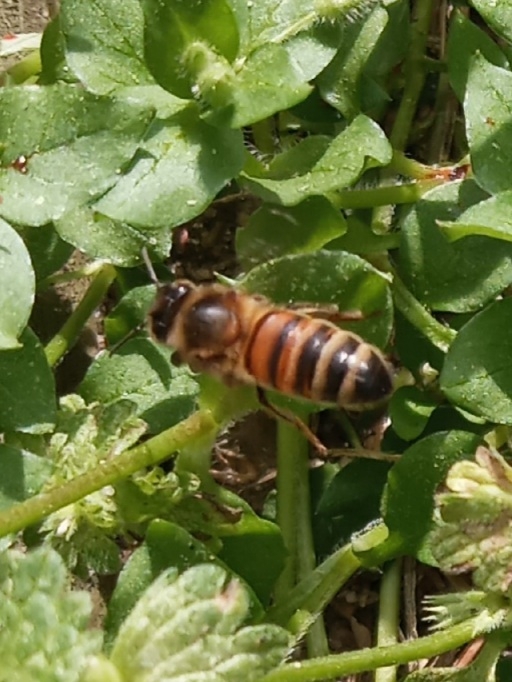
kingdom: Animalia
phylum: Arthropoda
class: Insecta
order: Hymenoptera
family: Apidae
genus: Apis
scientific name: Apis mellifera
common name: Honey bee
